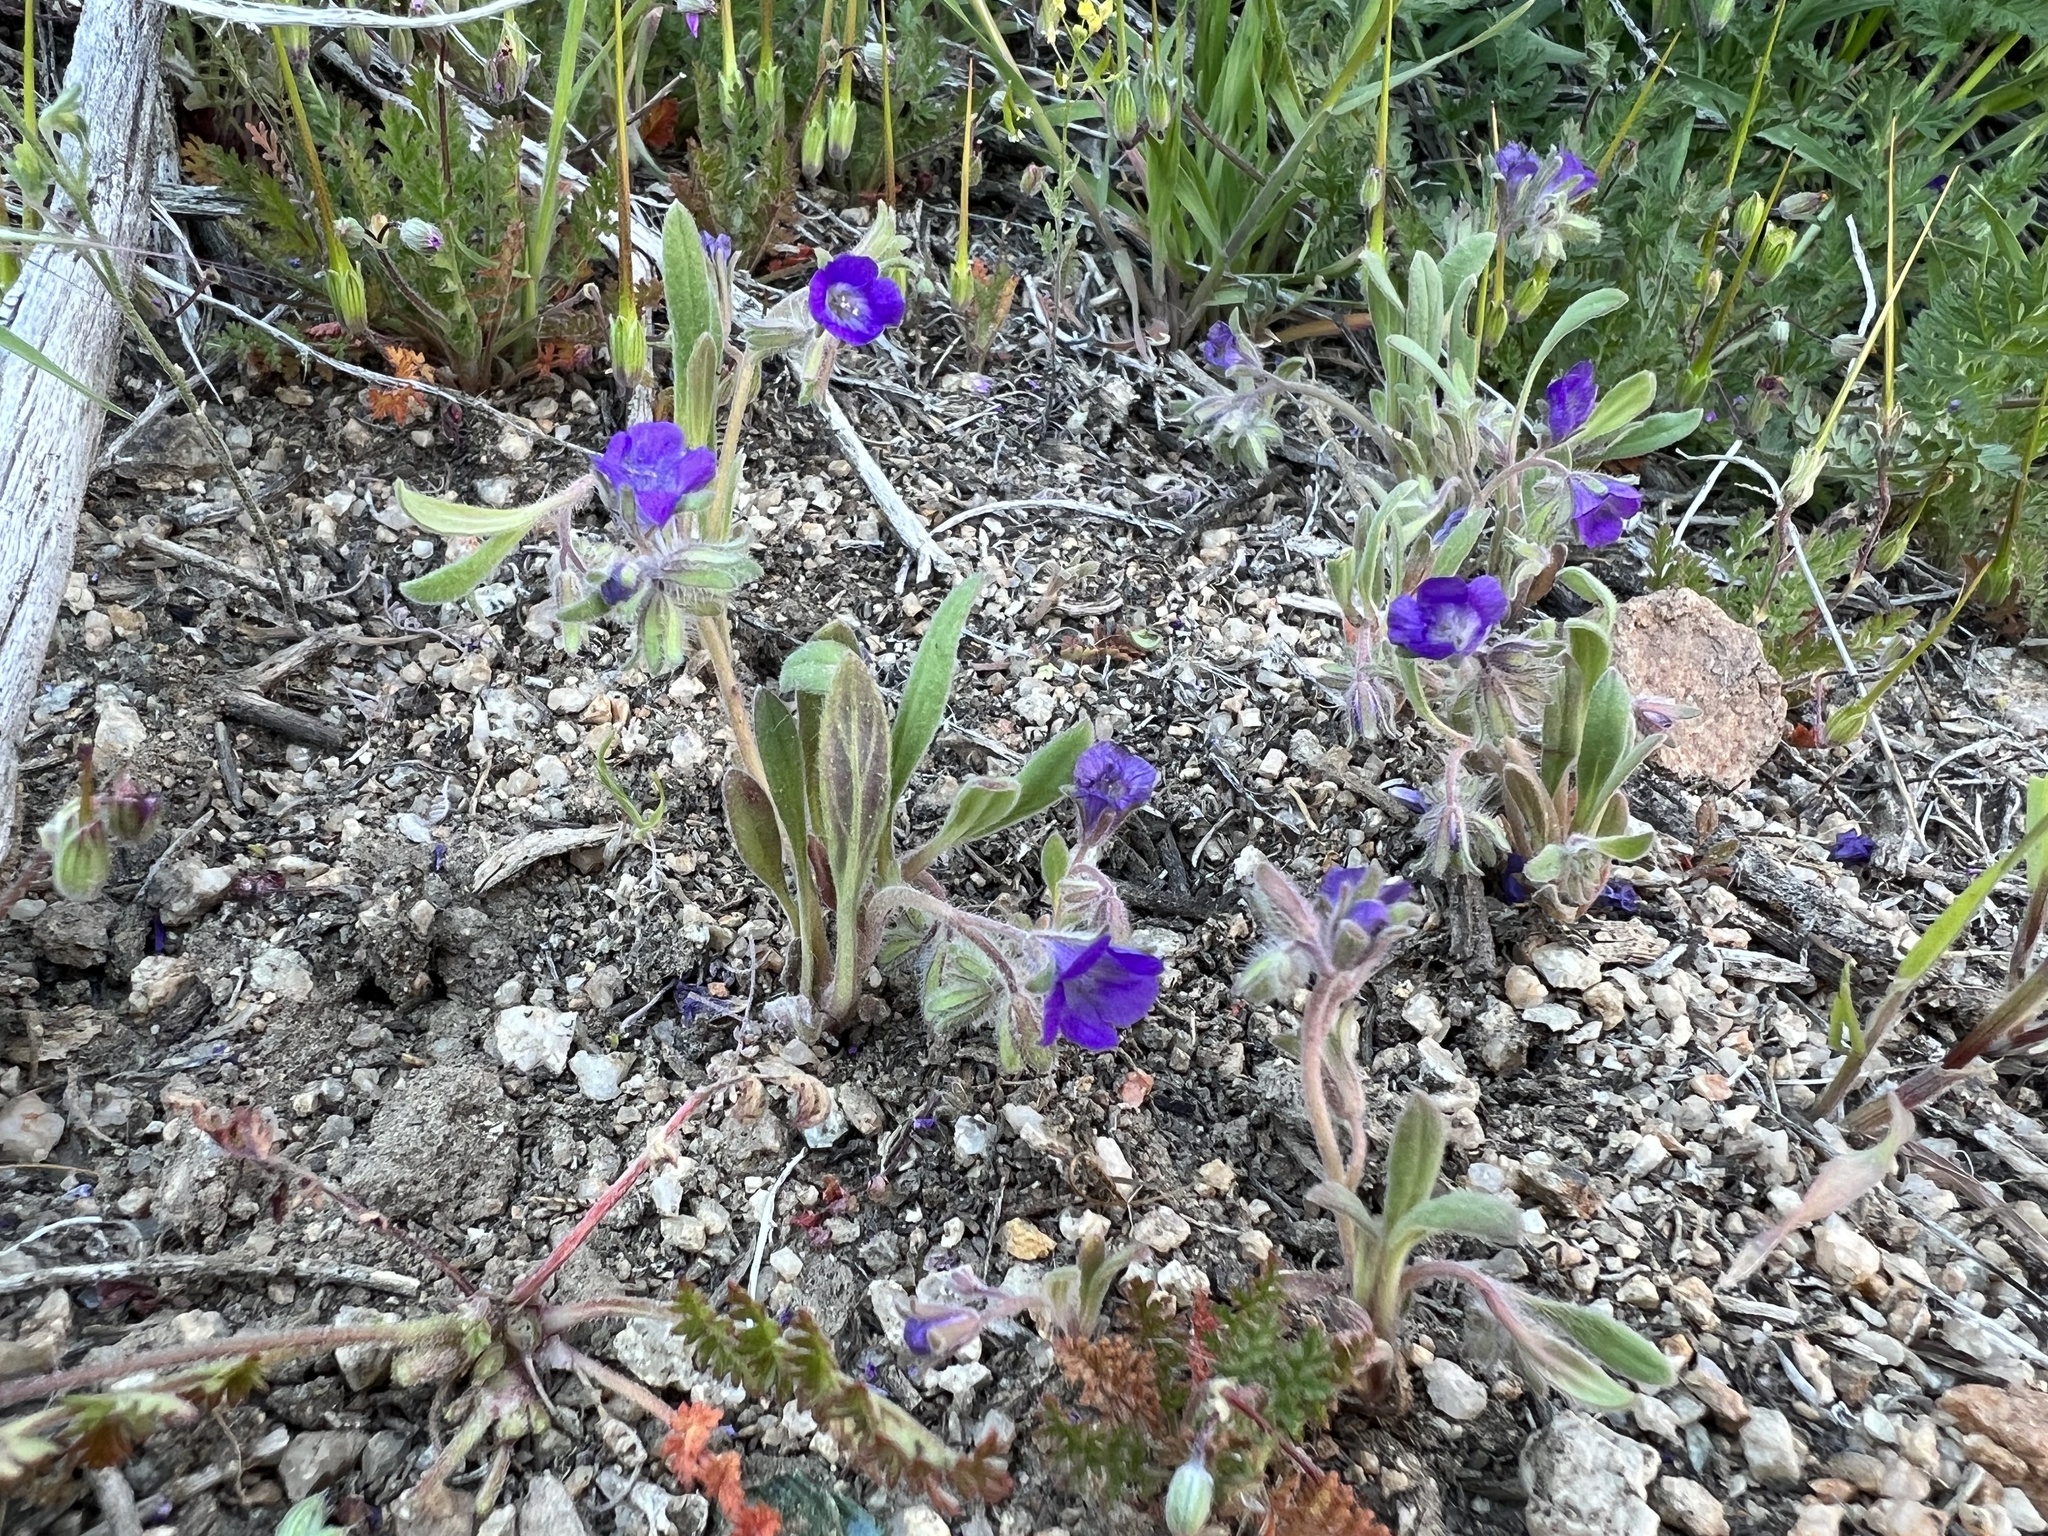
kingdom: Plantae
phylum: Tracheophyta
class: Magnoliopsida
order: Boraginales
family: Hydrophyllaceae
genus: Phacelia
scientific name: Phacelia curvipes
